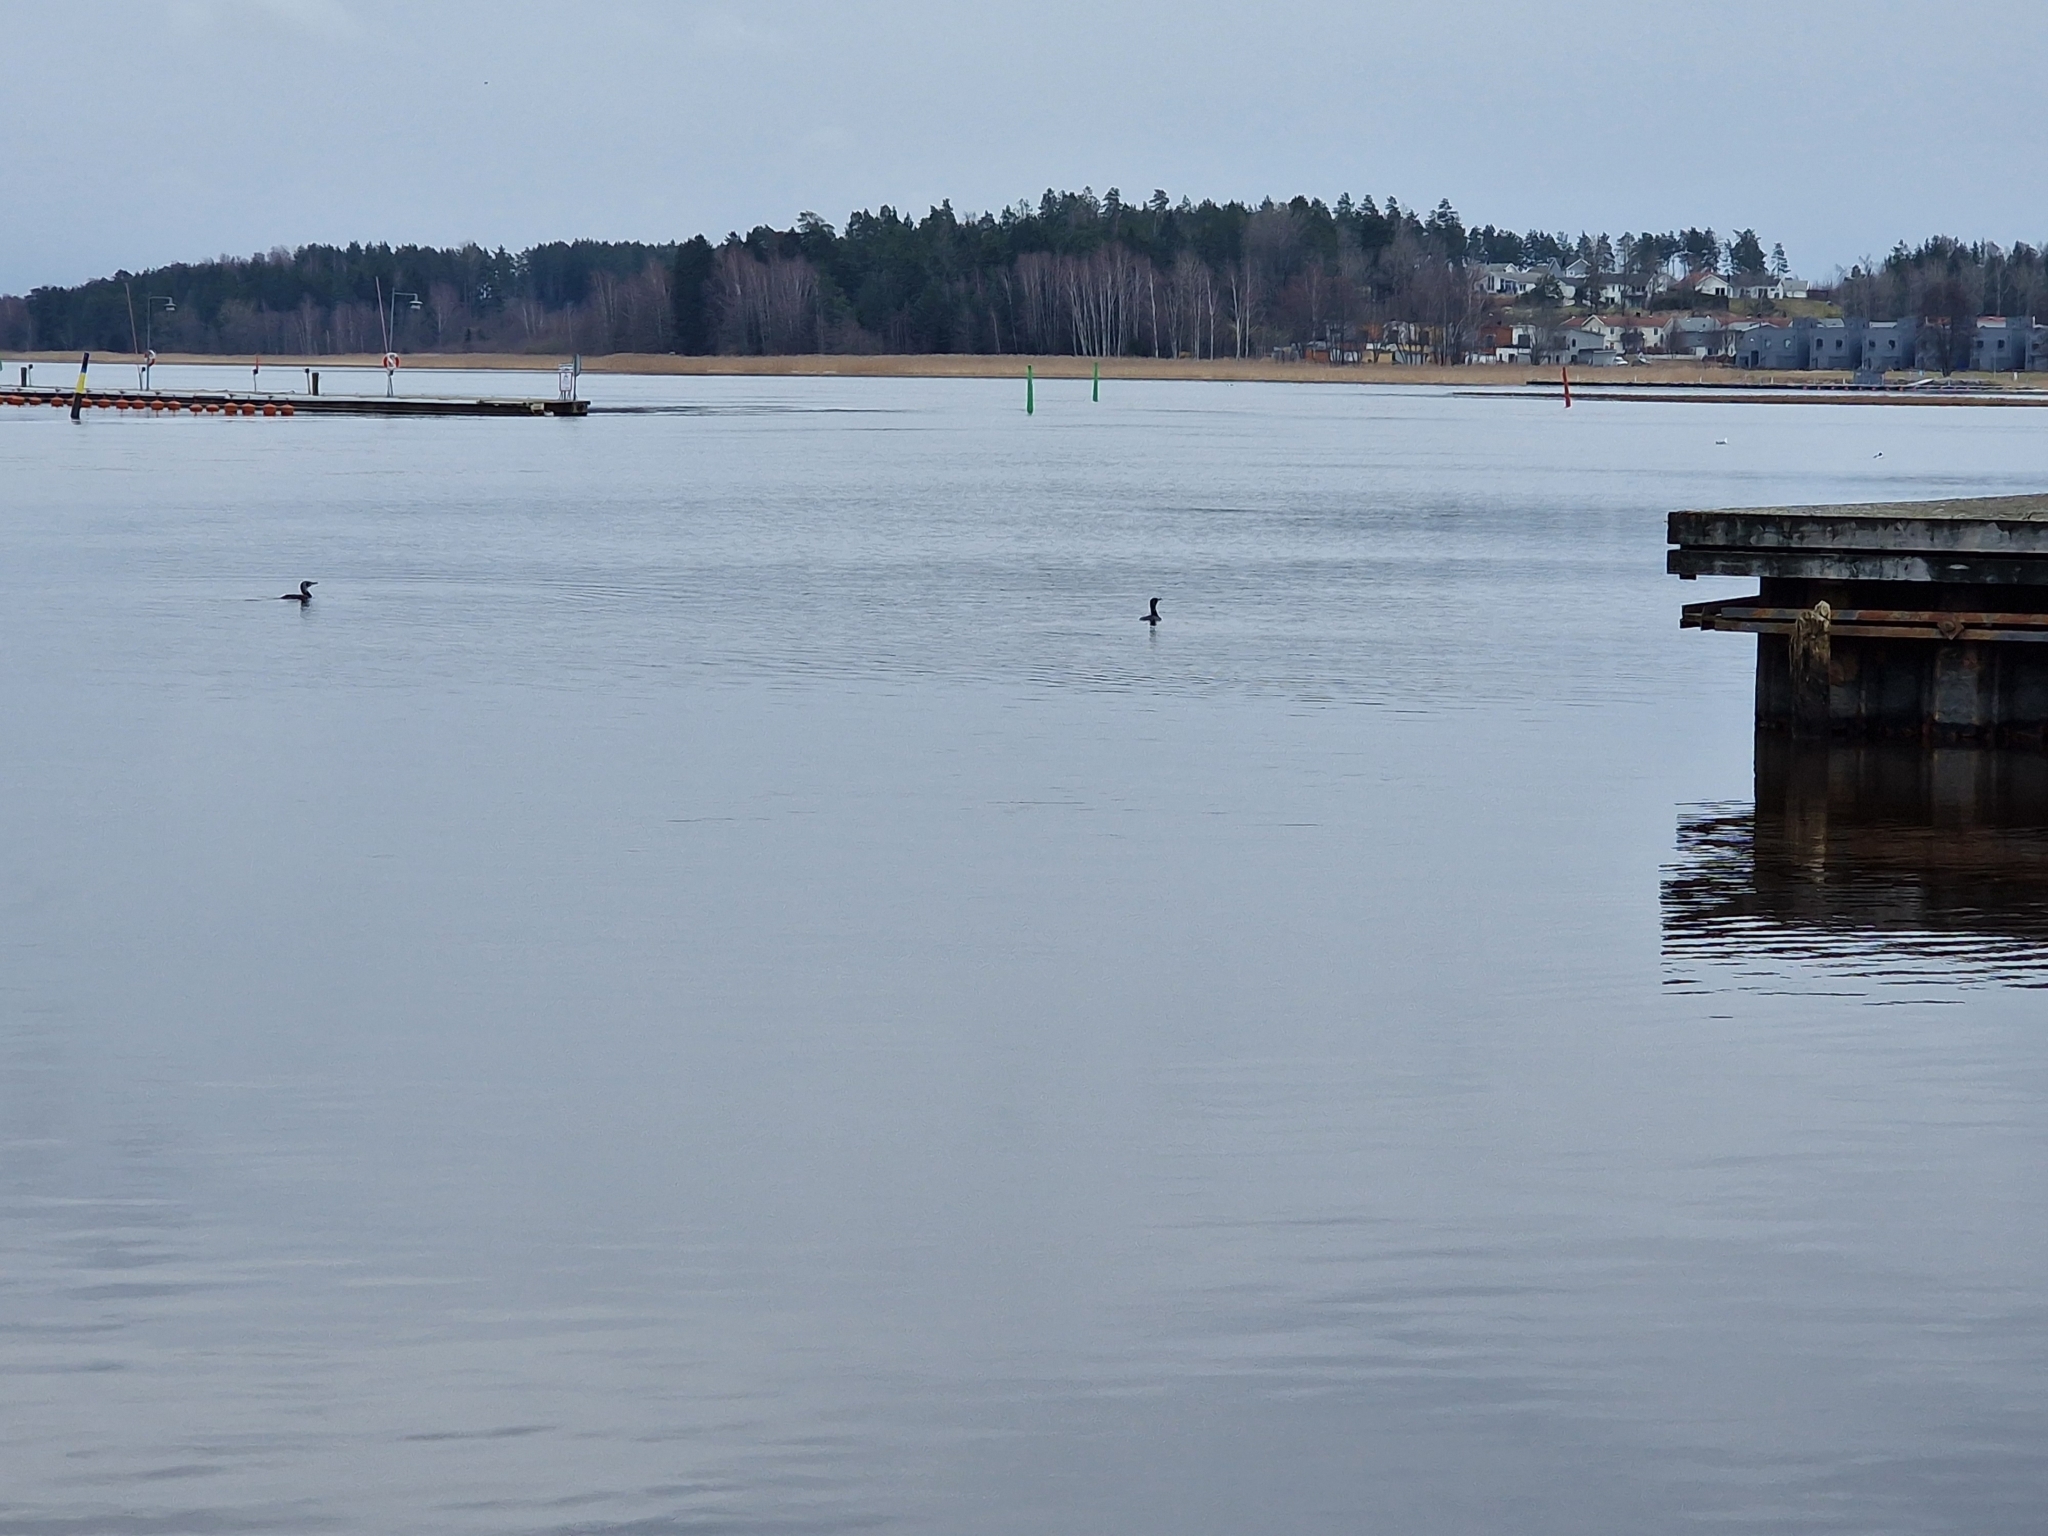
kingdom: Animalia
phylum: Chordata
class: Aves
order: Suliformes
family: Phalacrocoracidae
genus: Phalacrocorax
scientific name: Phalacrocorax carbo
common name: Great cormorant
